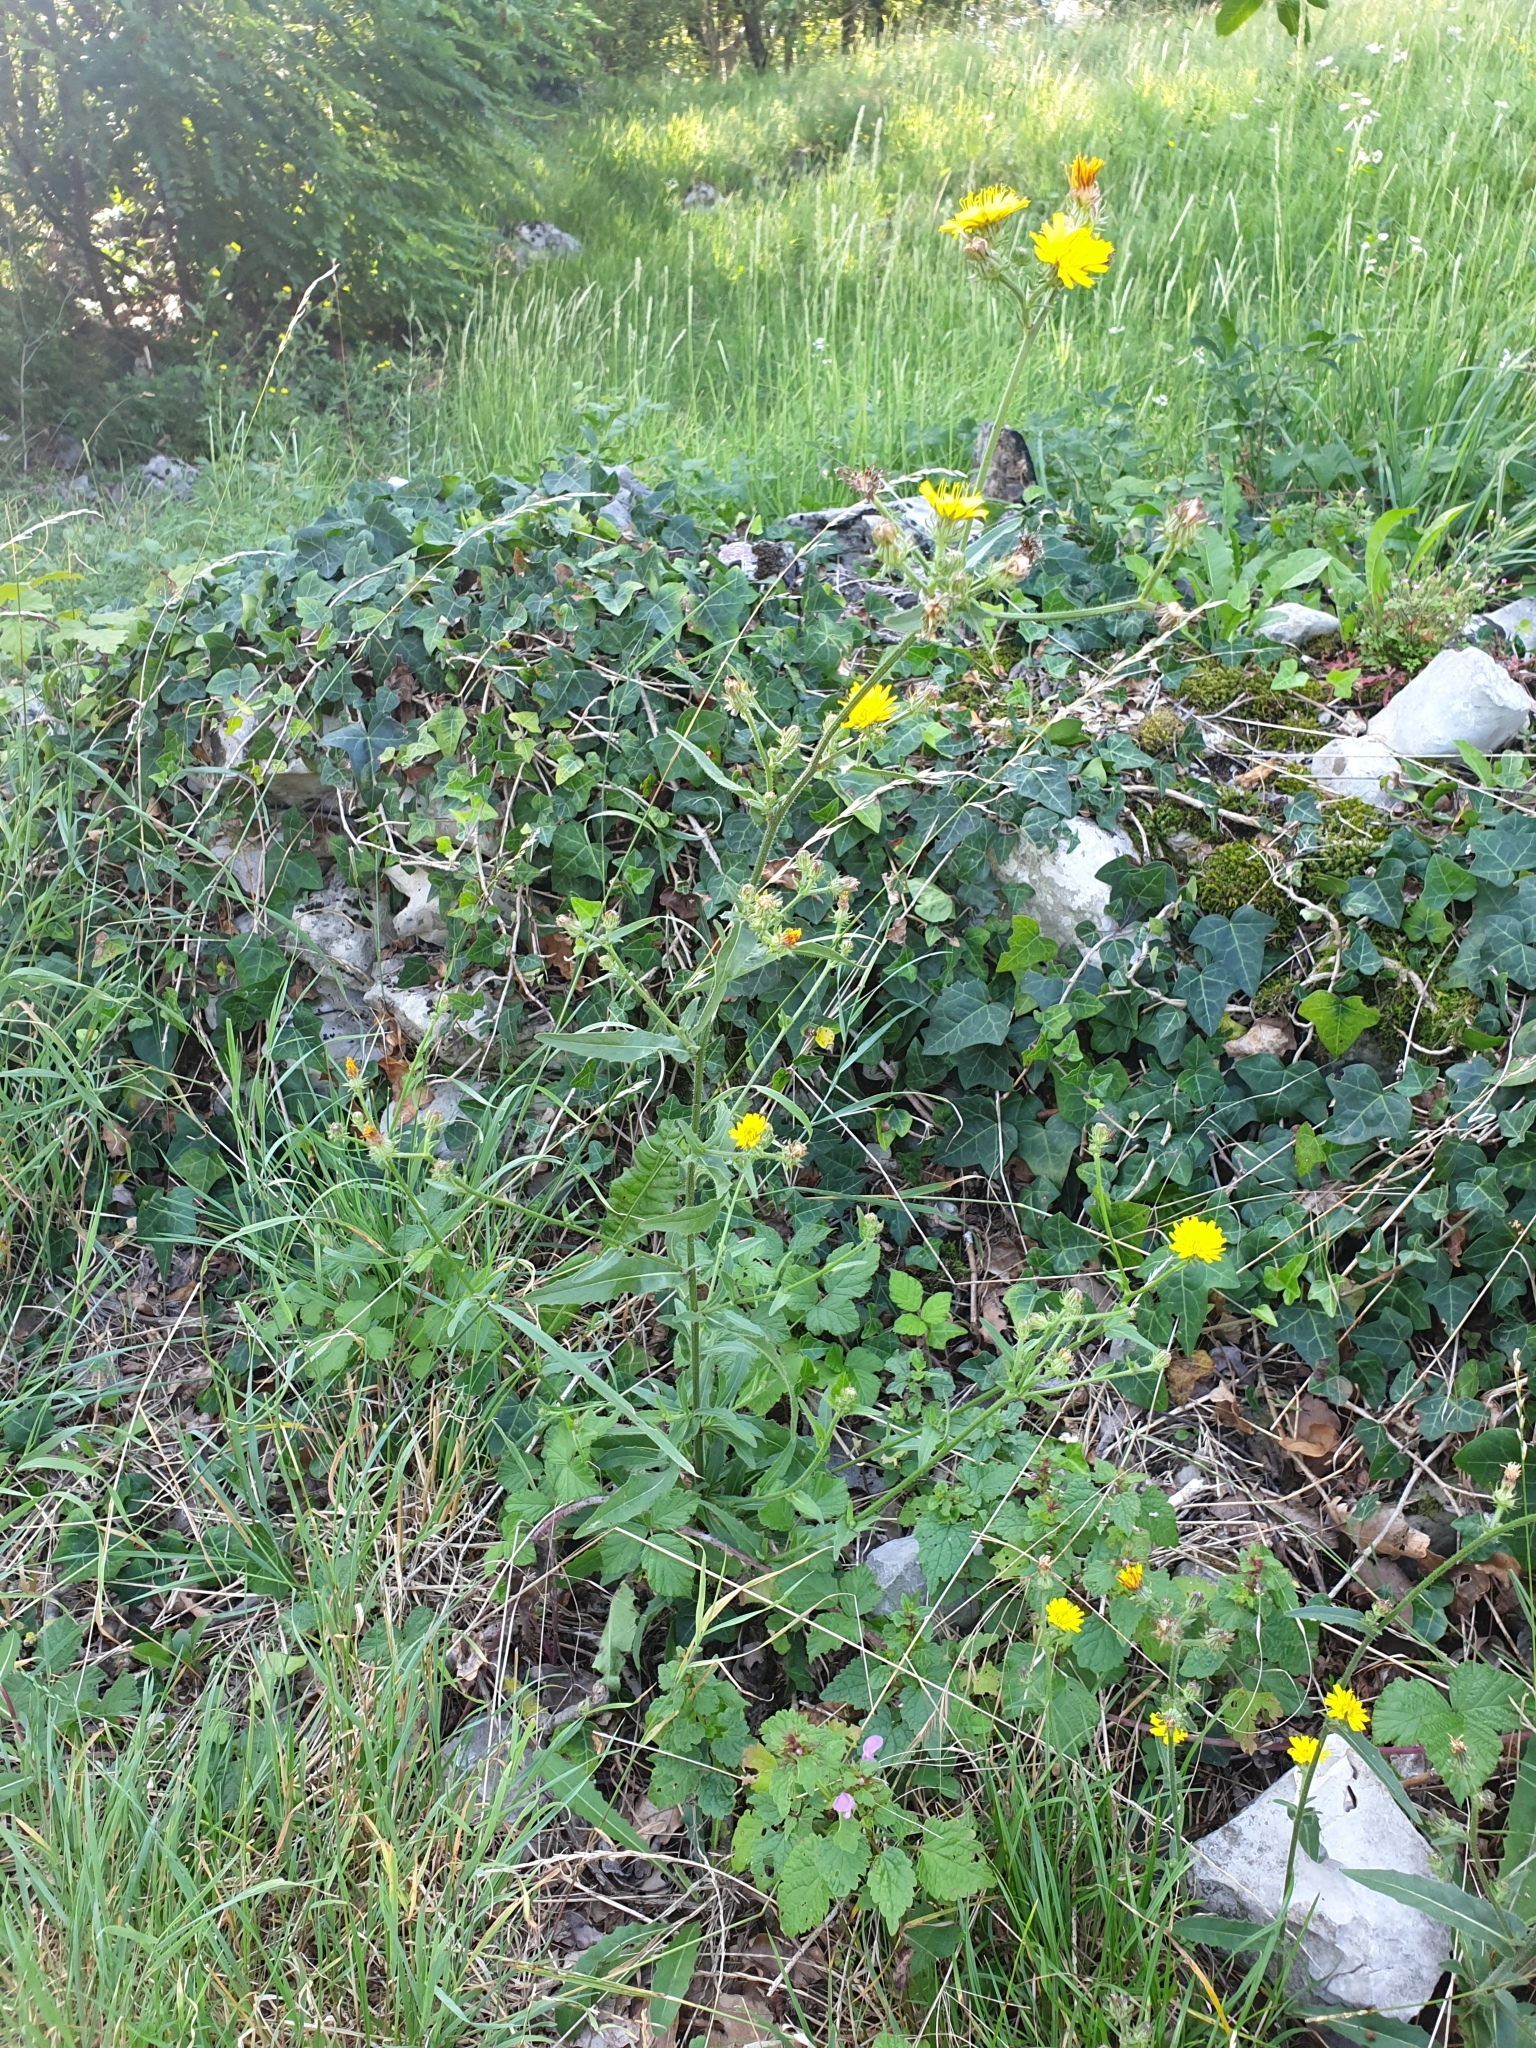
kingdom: Plantae
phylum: Tracheophyta
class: Magnoliopsida
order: Asterales
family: Asteraceae
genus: Picris
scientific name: Picris hieracioides
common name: Hawkweed oxtongue
